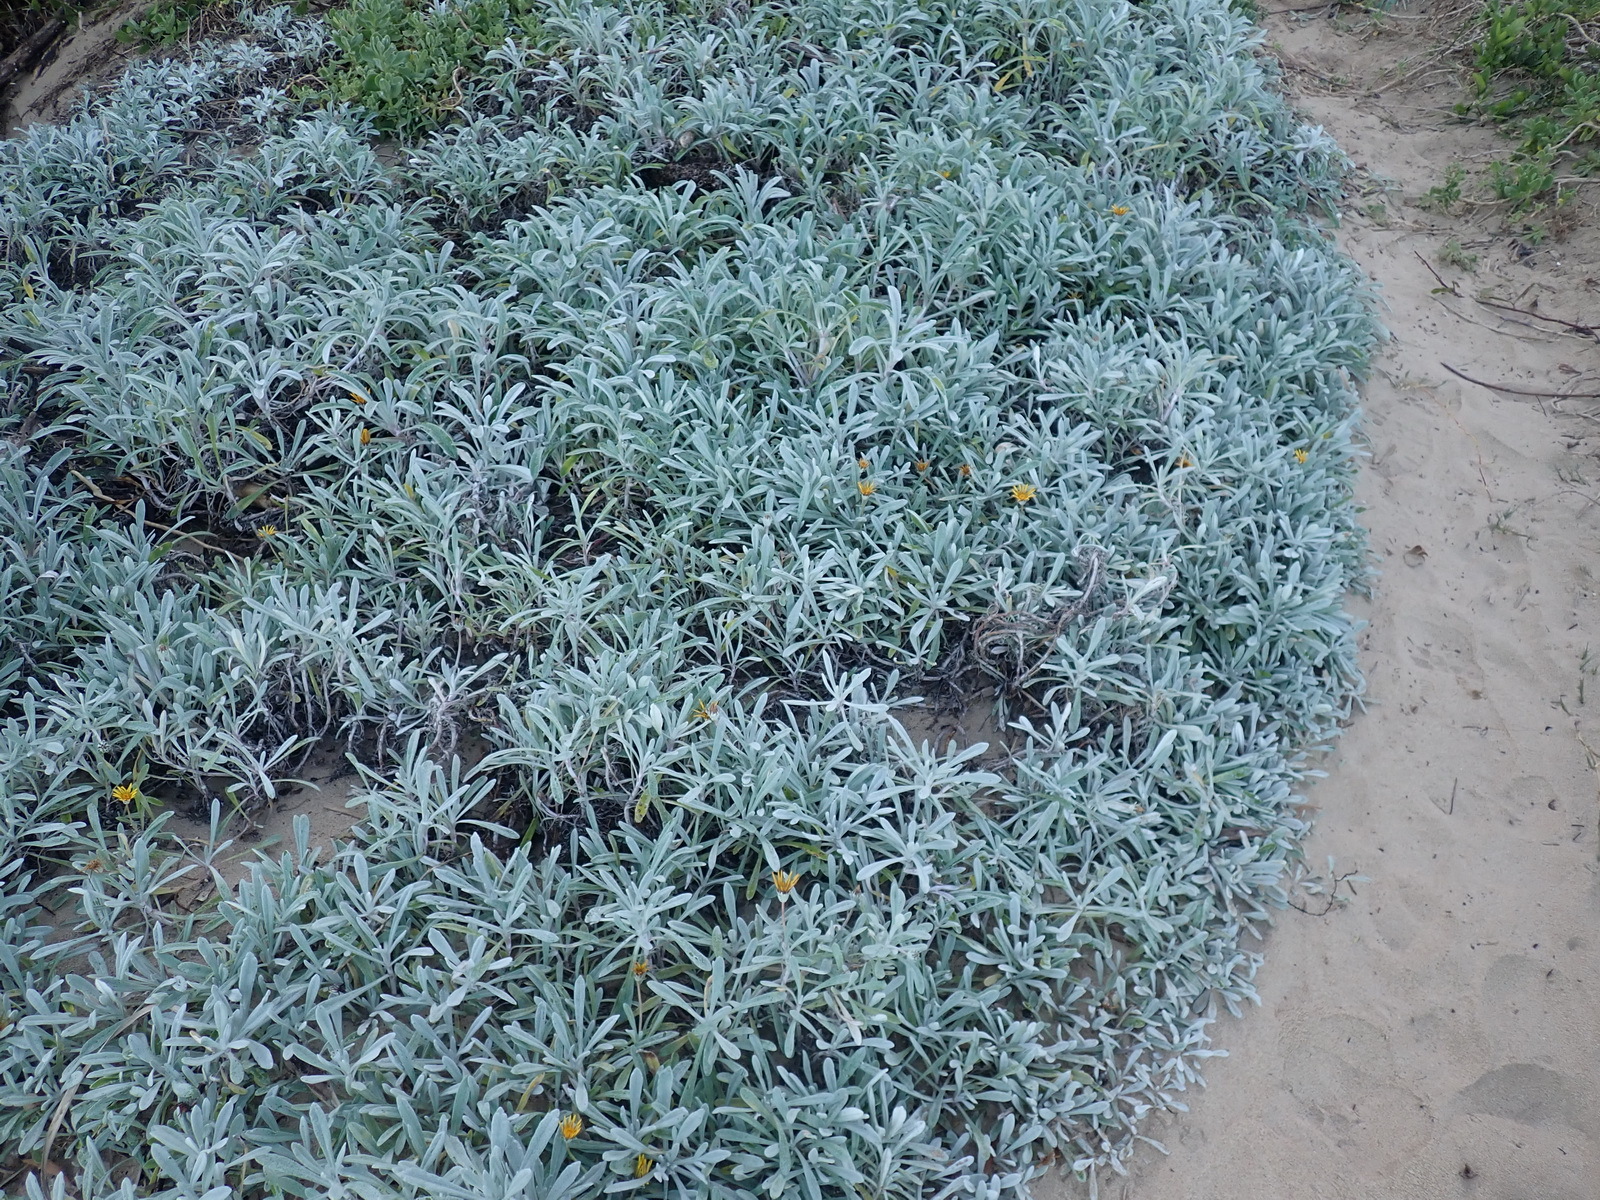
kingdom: Plantae
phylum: Tracheophyta
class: Magnoliopsida
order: Asterales
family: Asteraceae
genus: Gazania
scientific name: Gazania rigens
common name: Treasureflower
